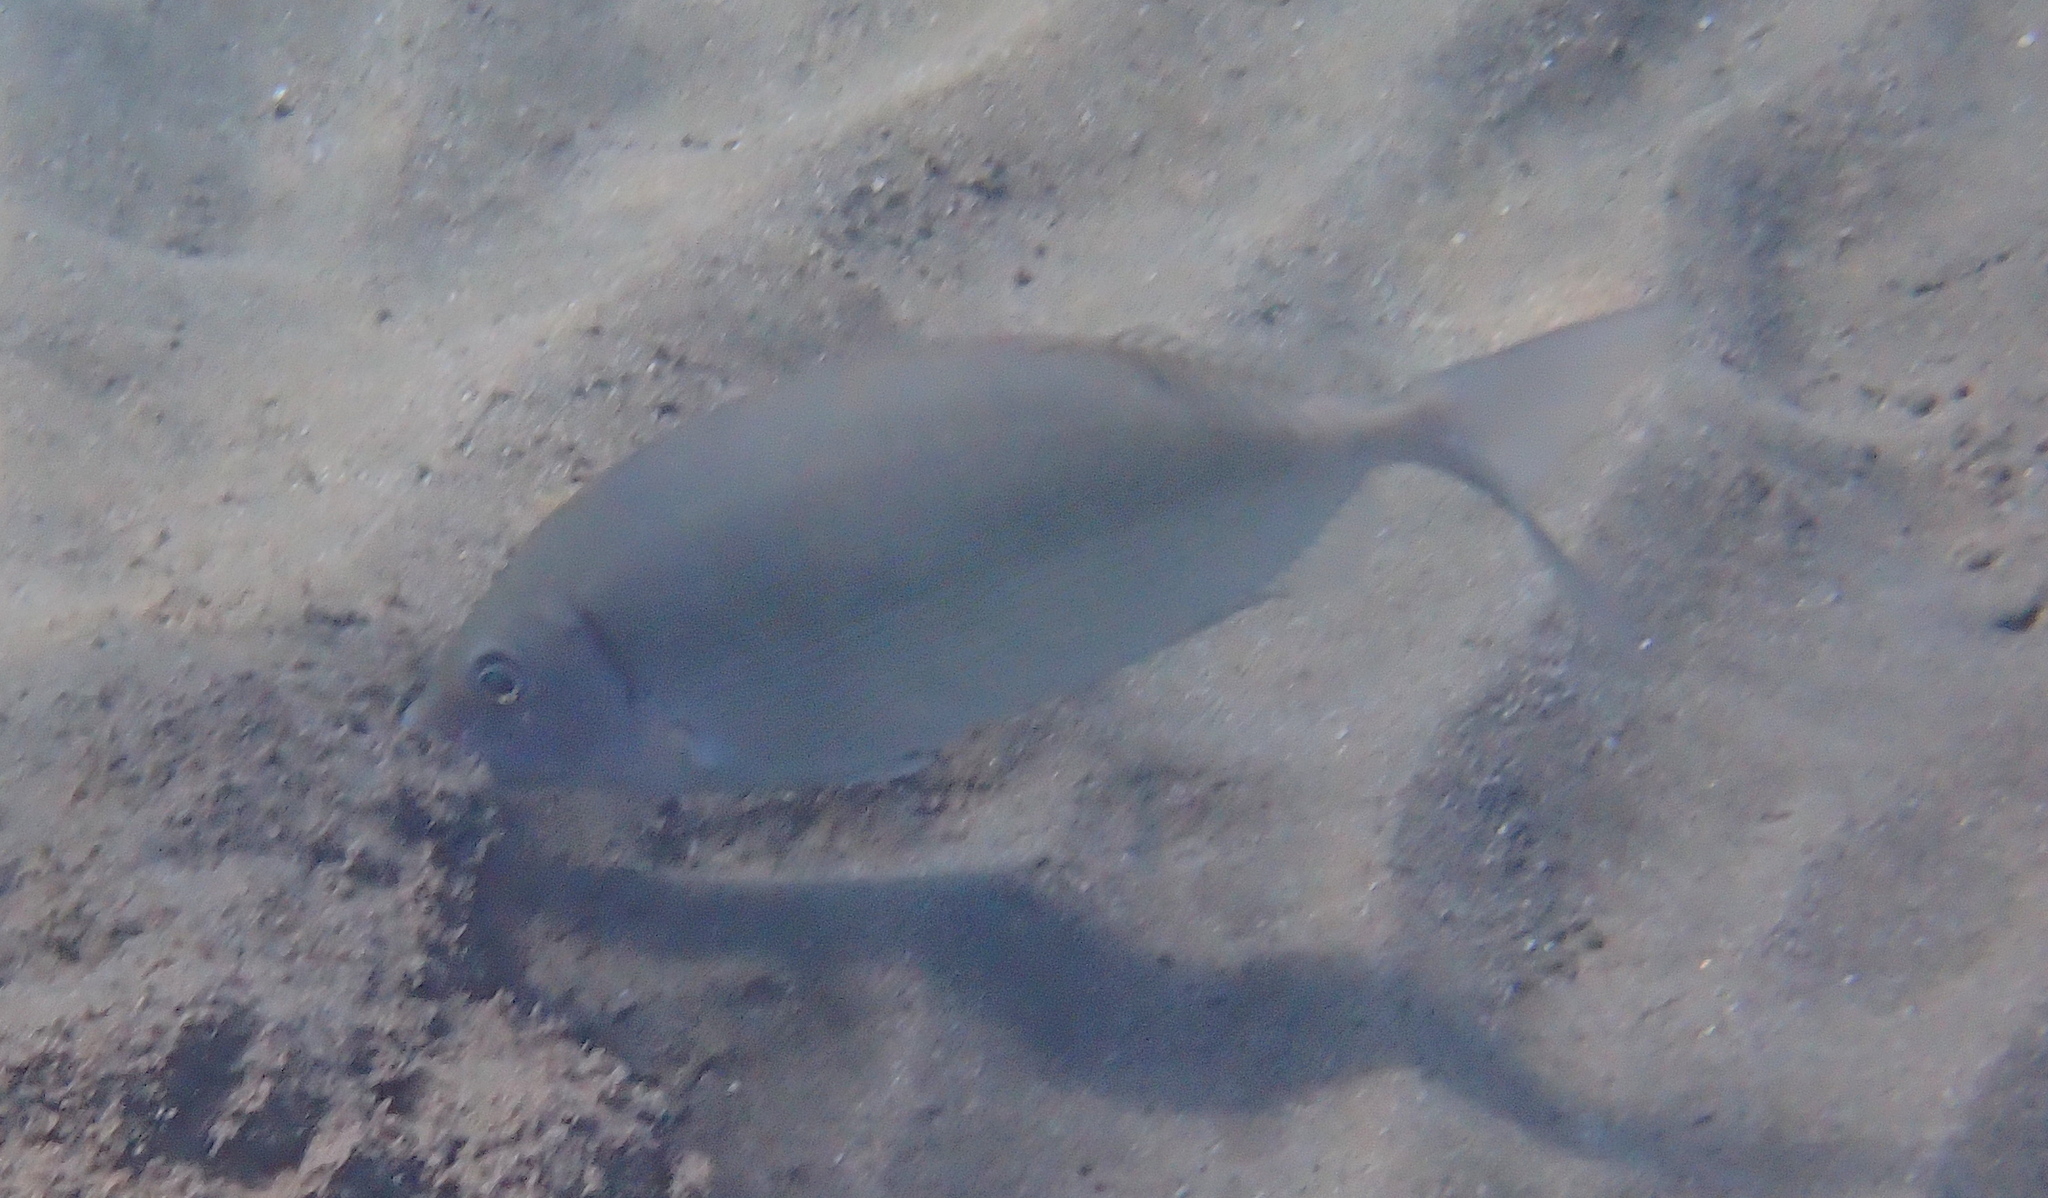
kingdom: Animalia
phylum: Chordata
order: Perciformes
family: Siganidae
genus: Siganus
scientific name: Siganus rivulatus
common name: Marbled spinefoot
